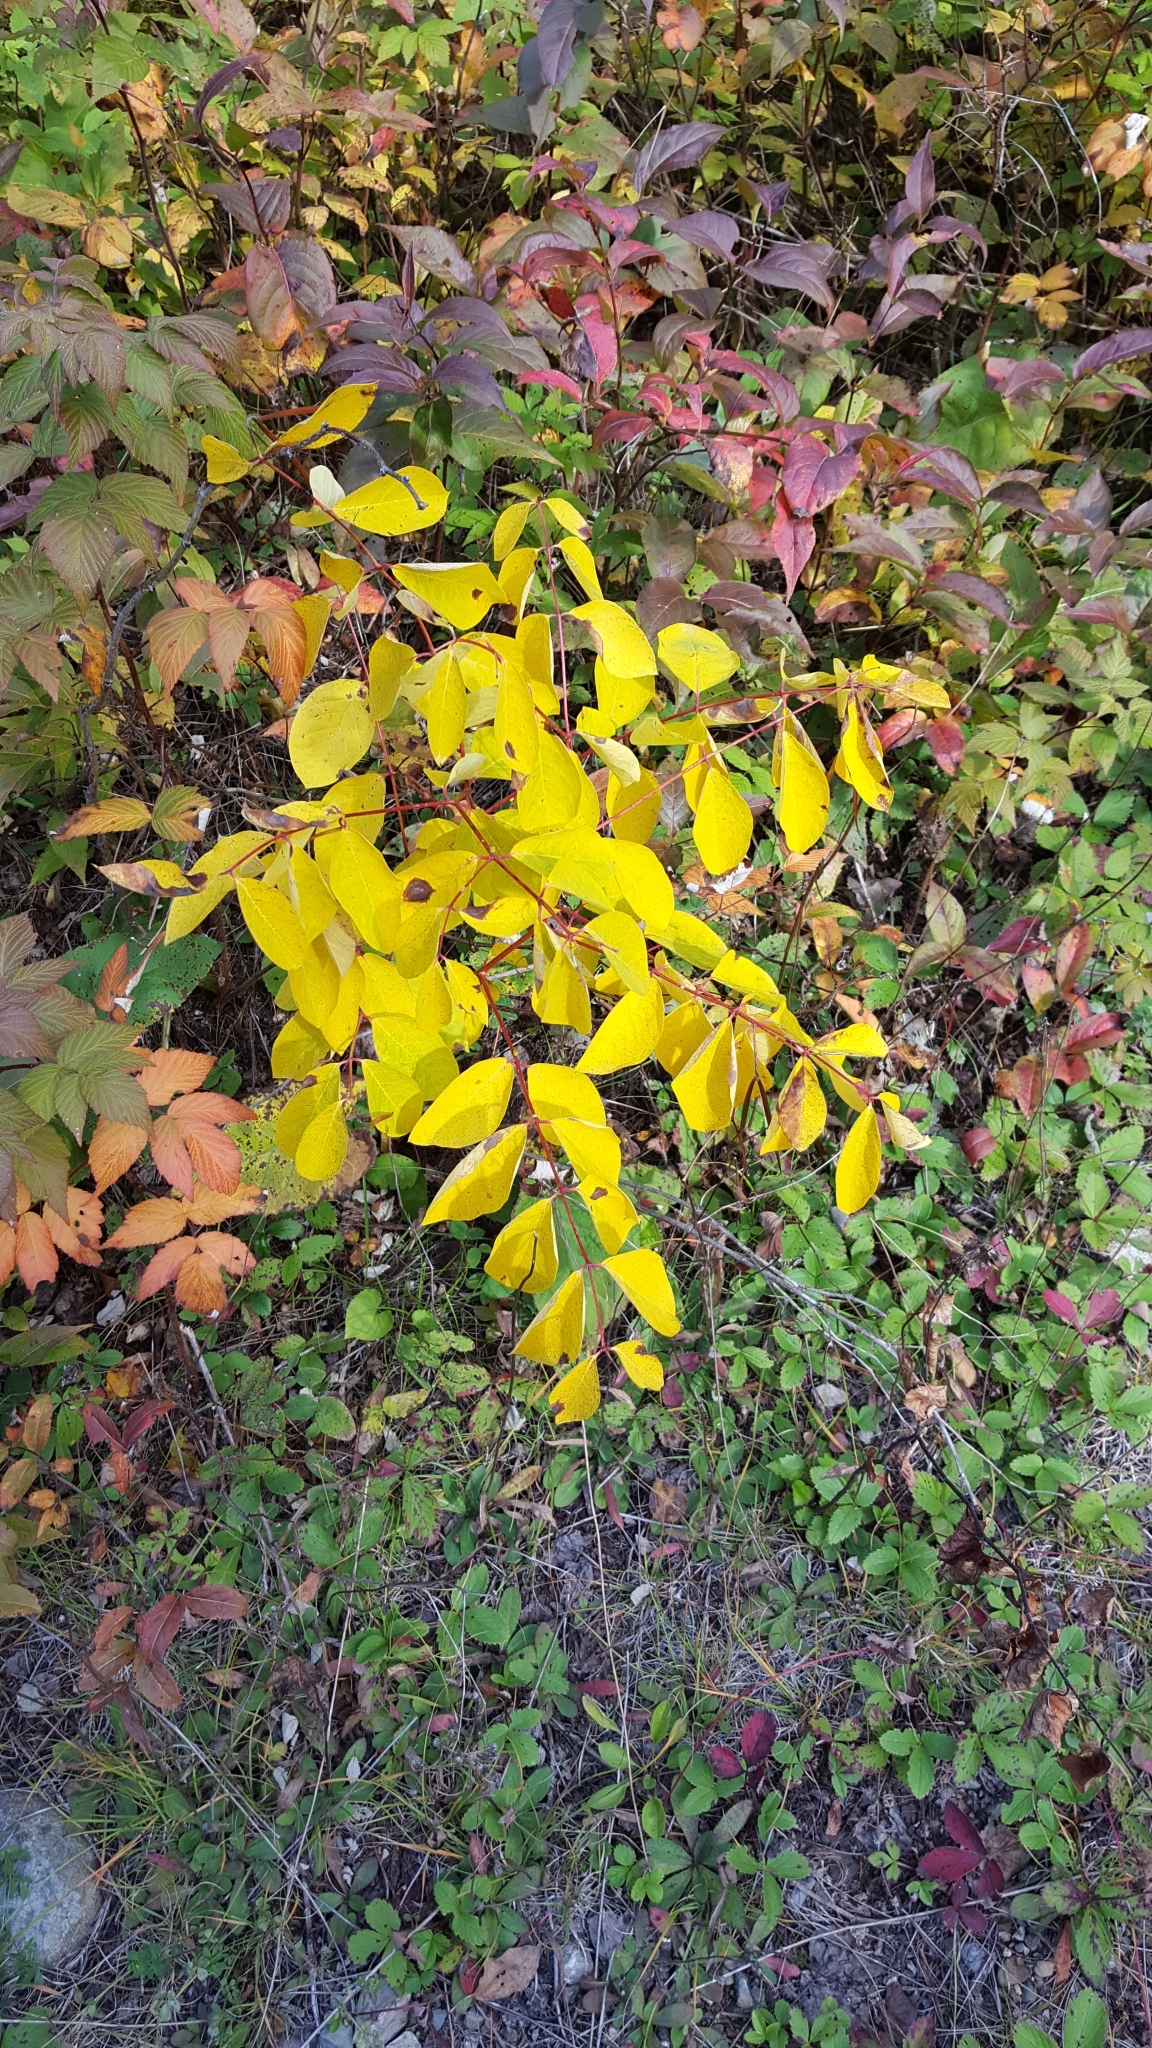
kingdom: Plantae
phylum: Tracheophyta
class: Magnoliopsida
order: Gentianales
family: Apocynaceae
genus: Apocynum
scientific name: Apocynum androsaemifolium
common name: Spreading dogbane
